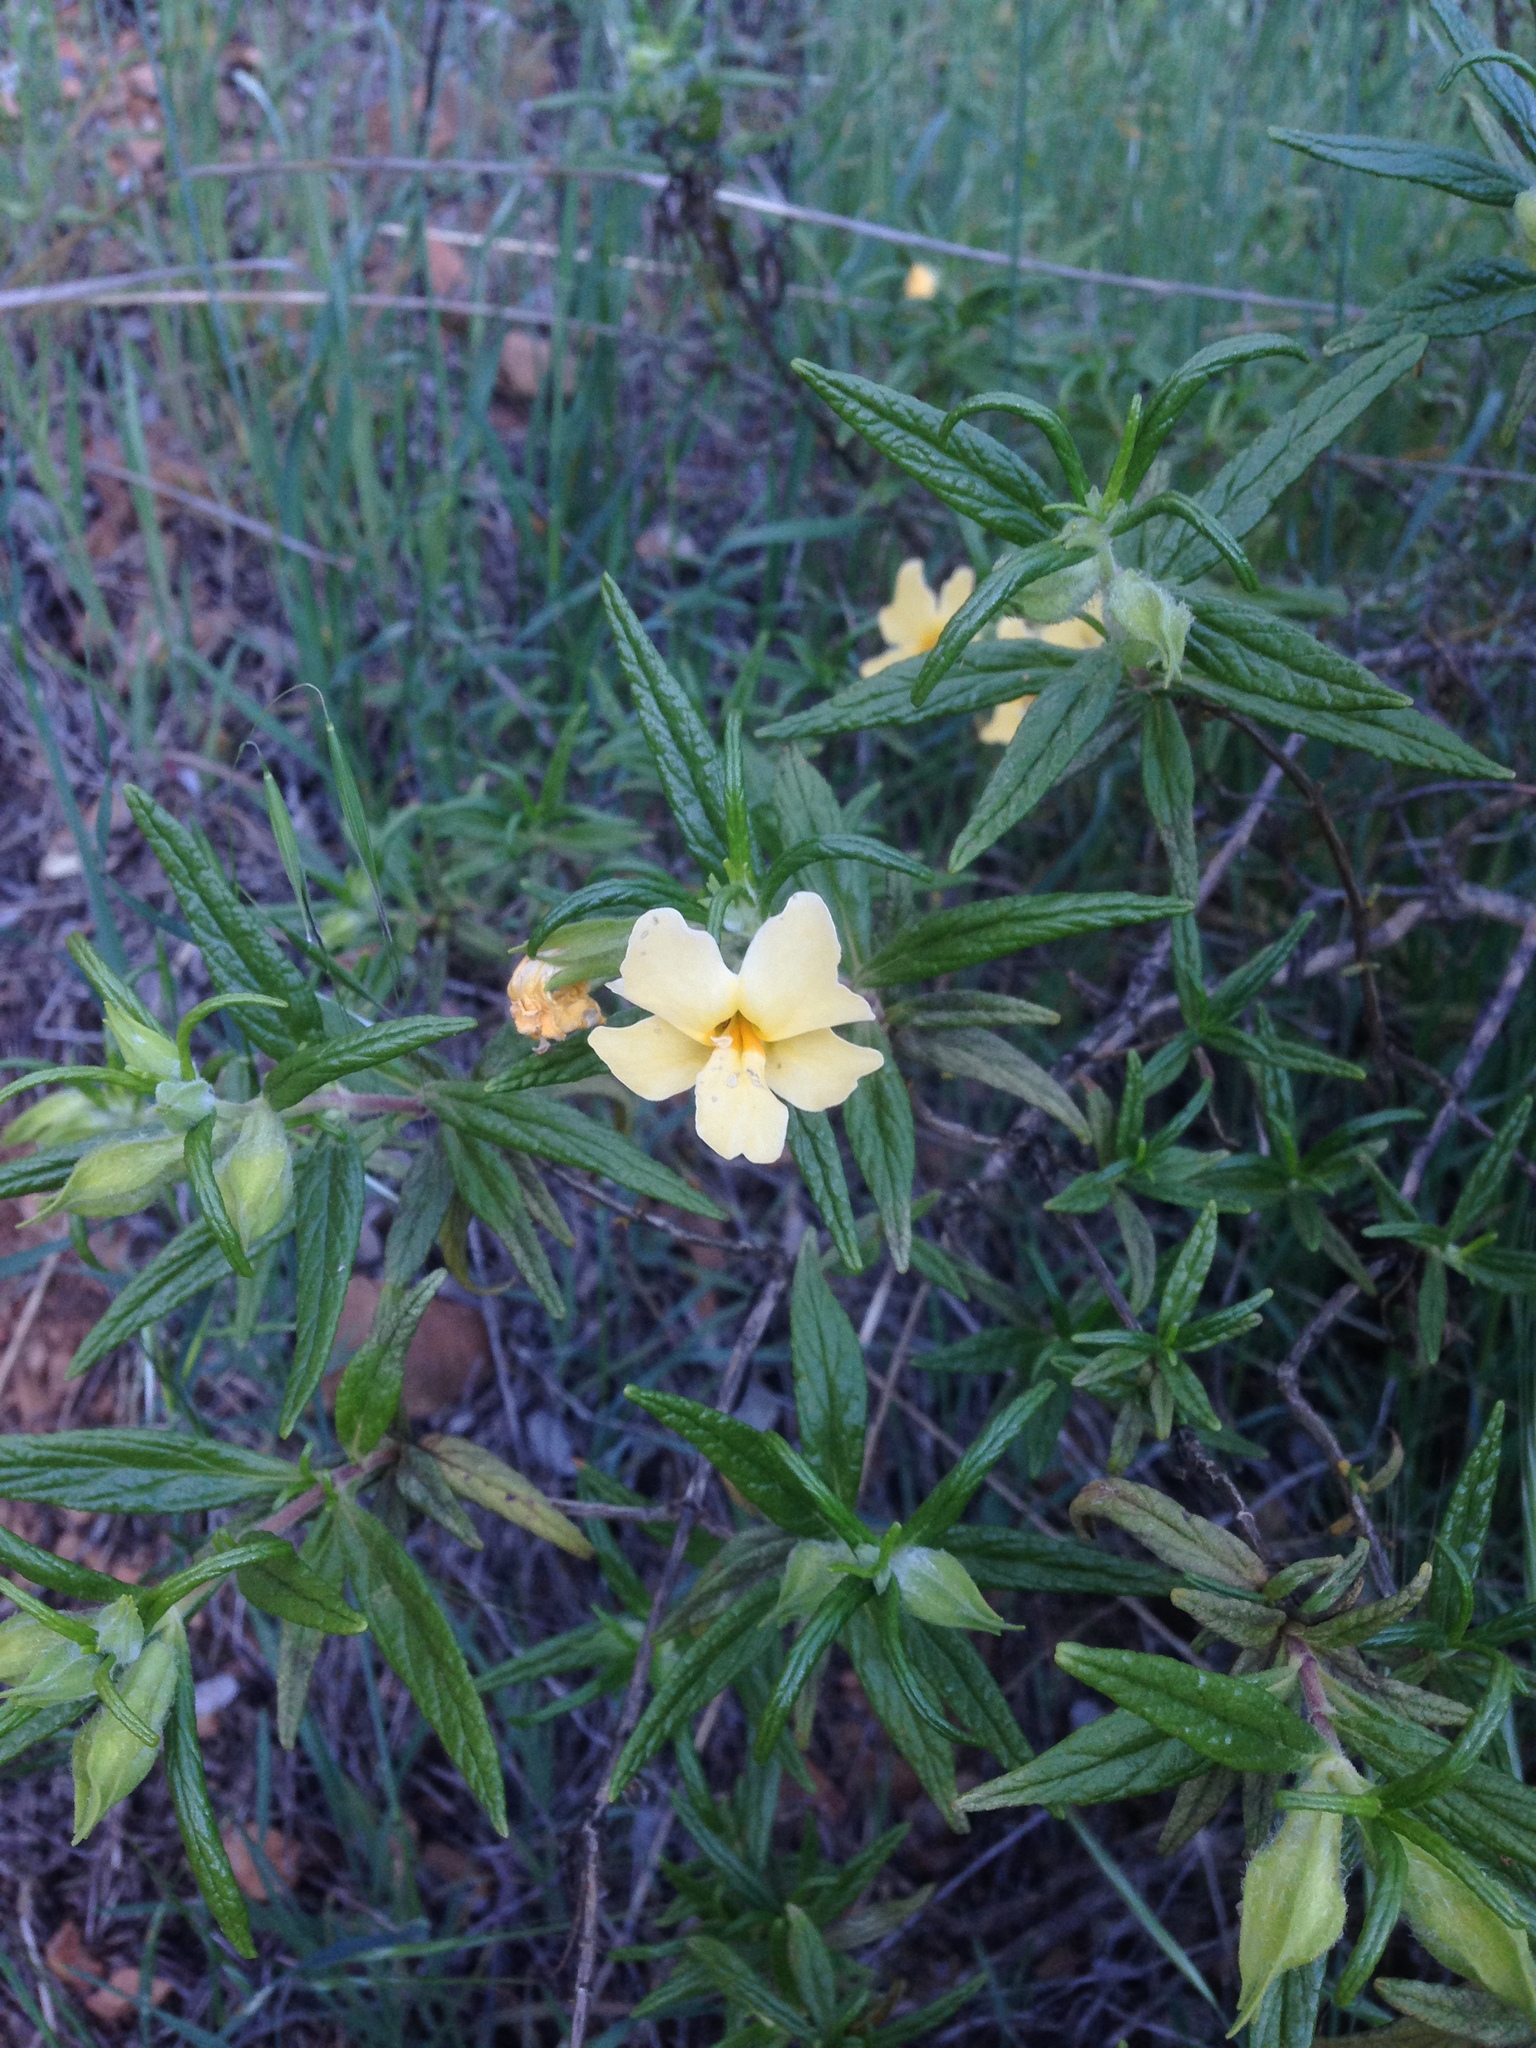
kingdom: Plantae
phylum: Tracheophyta
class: Magnoliopsida
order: Lamiales
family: Phrymaceae
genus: Diplacus
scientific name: Diplacus longiflorus
